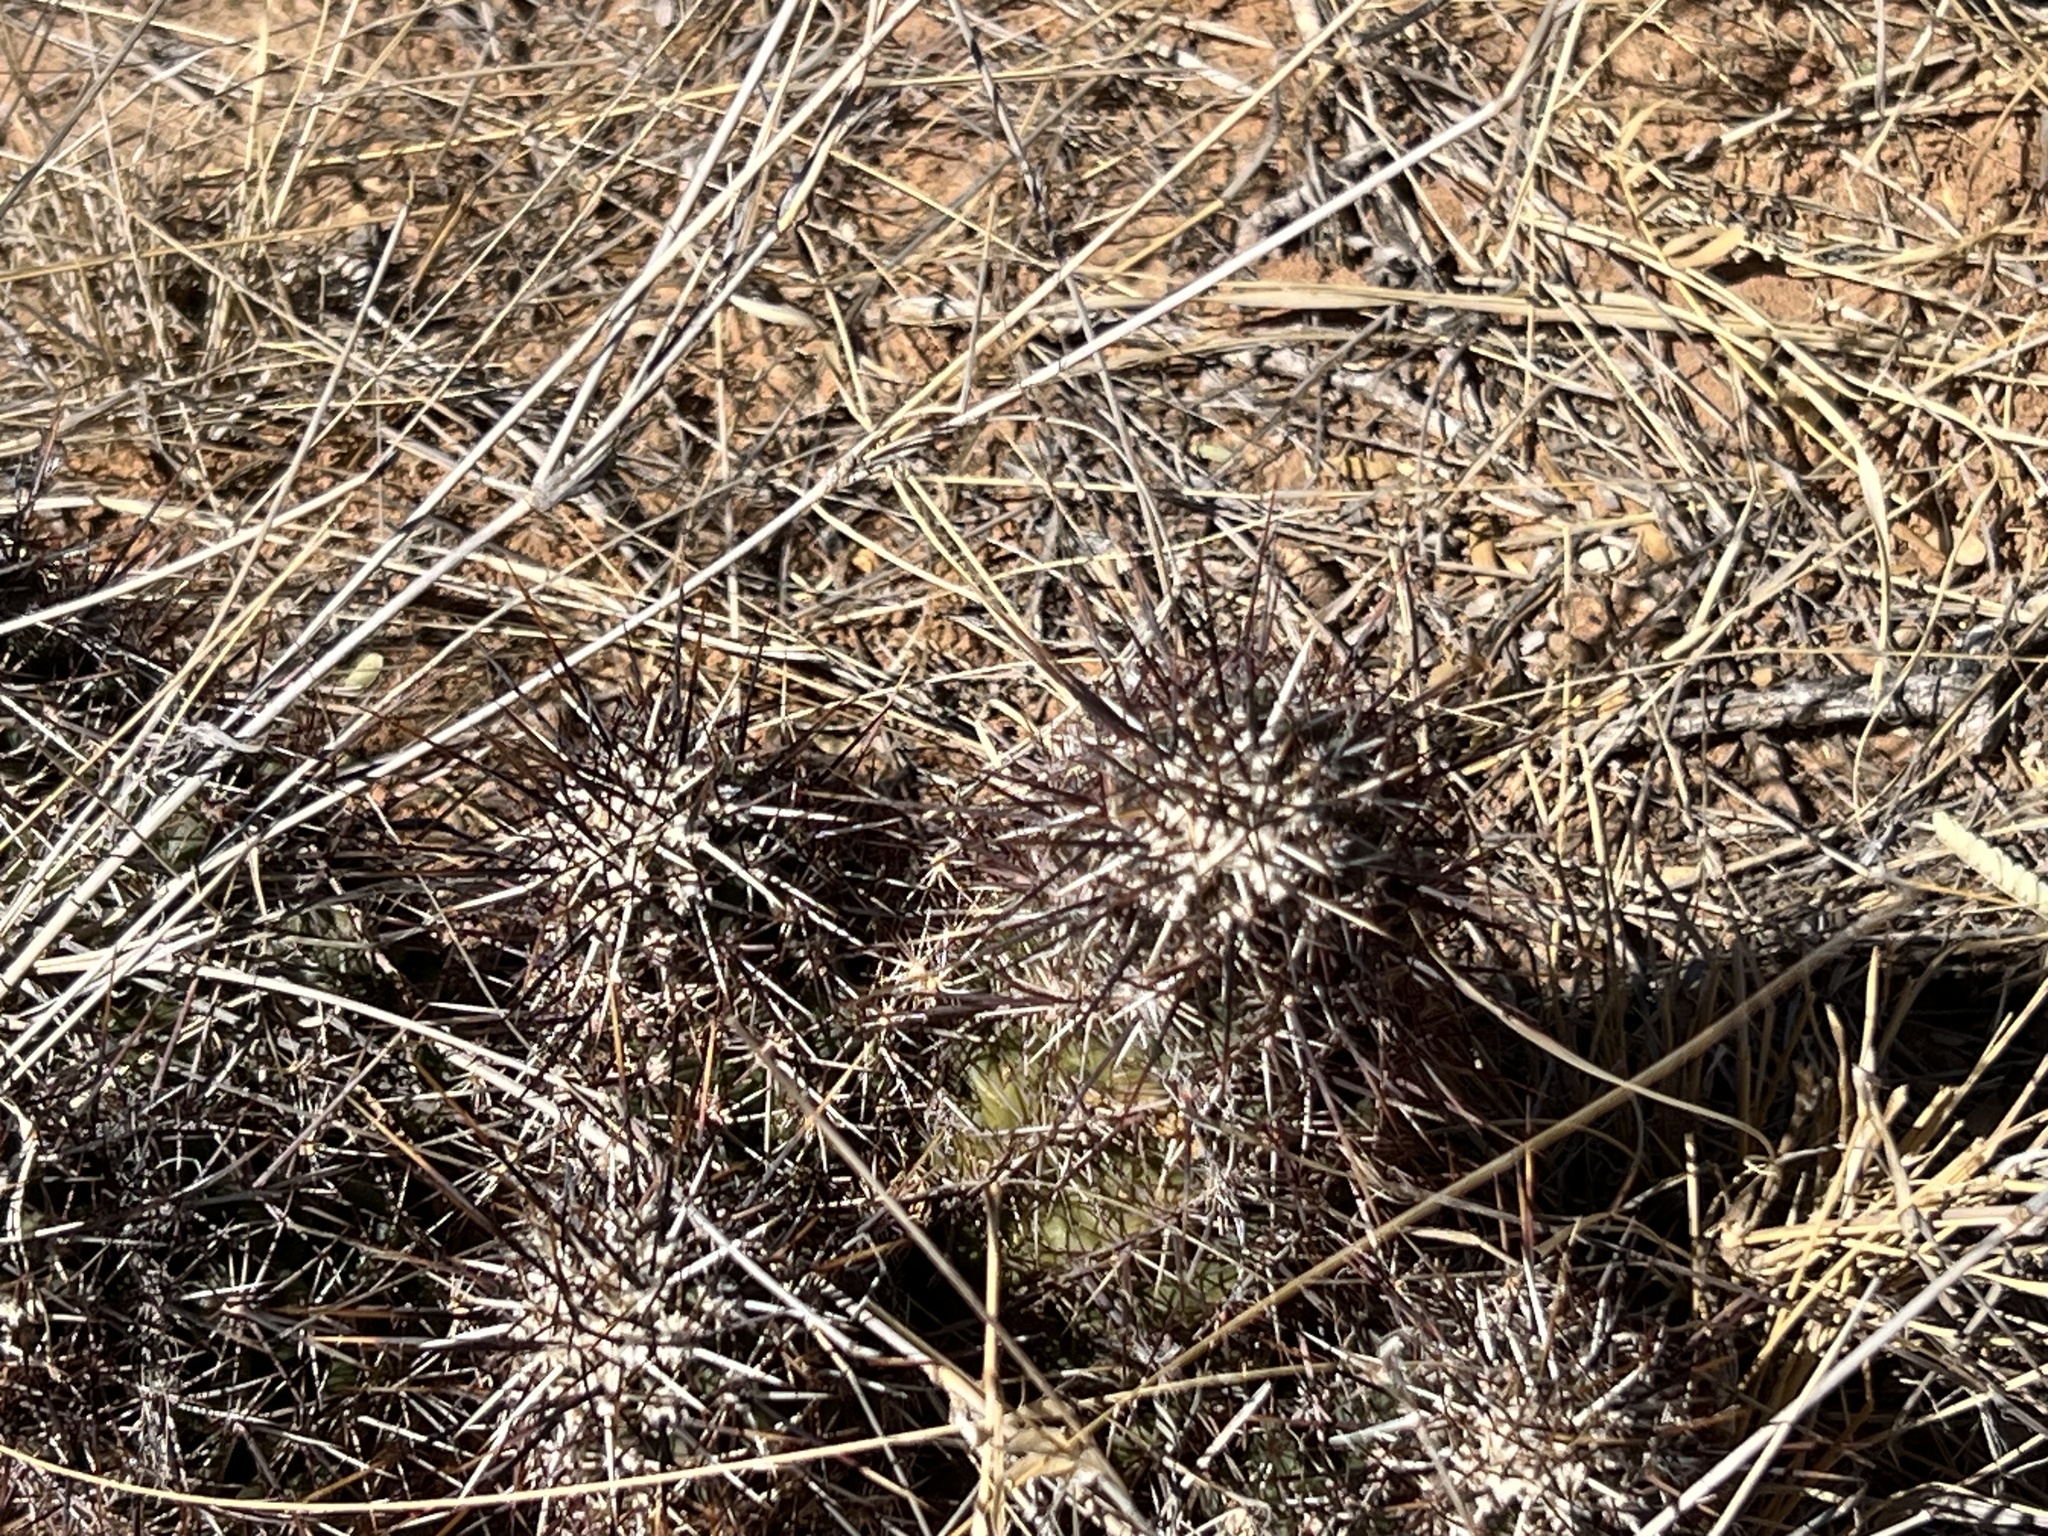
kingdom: Plantae
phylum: Tracheophyta
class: Magnoliopsida
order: Caryophyllales
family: Cactaceae
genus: Echinocereus
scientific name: Echinocereus fasciculatus
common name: Bundle hedgehog
